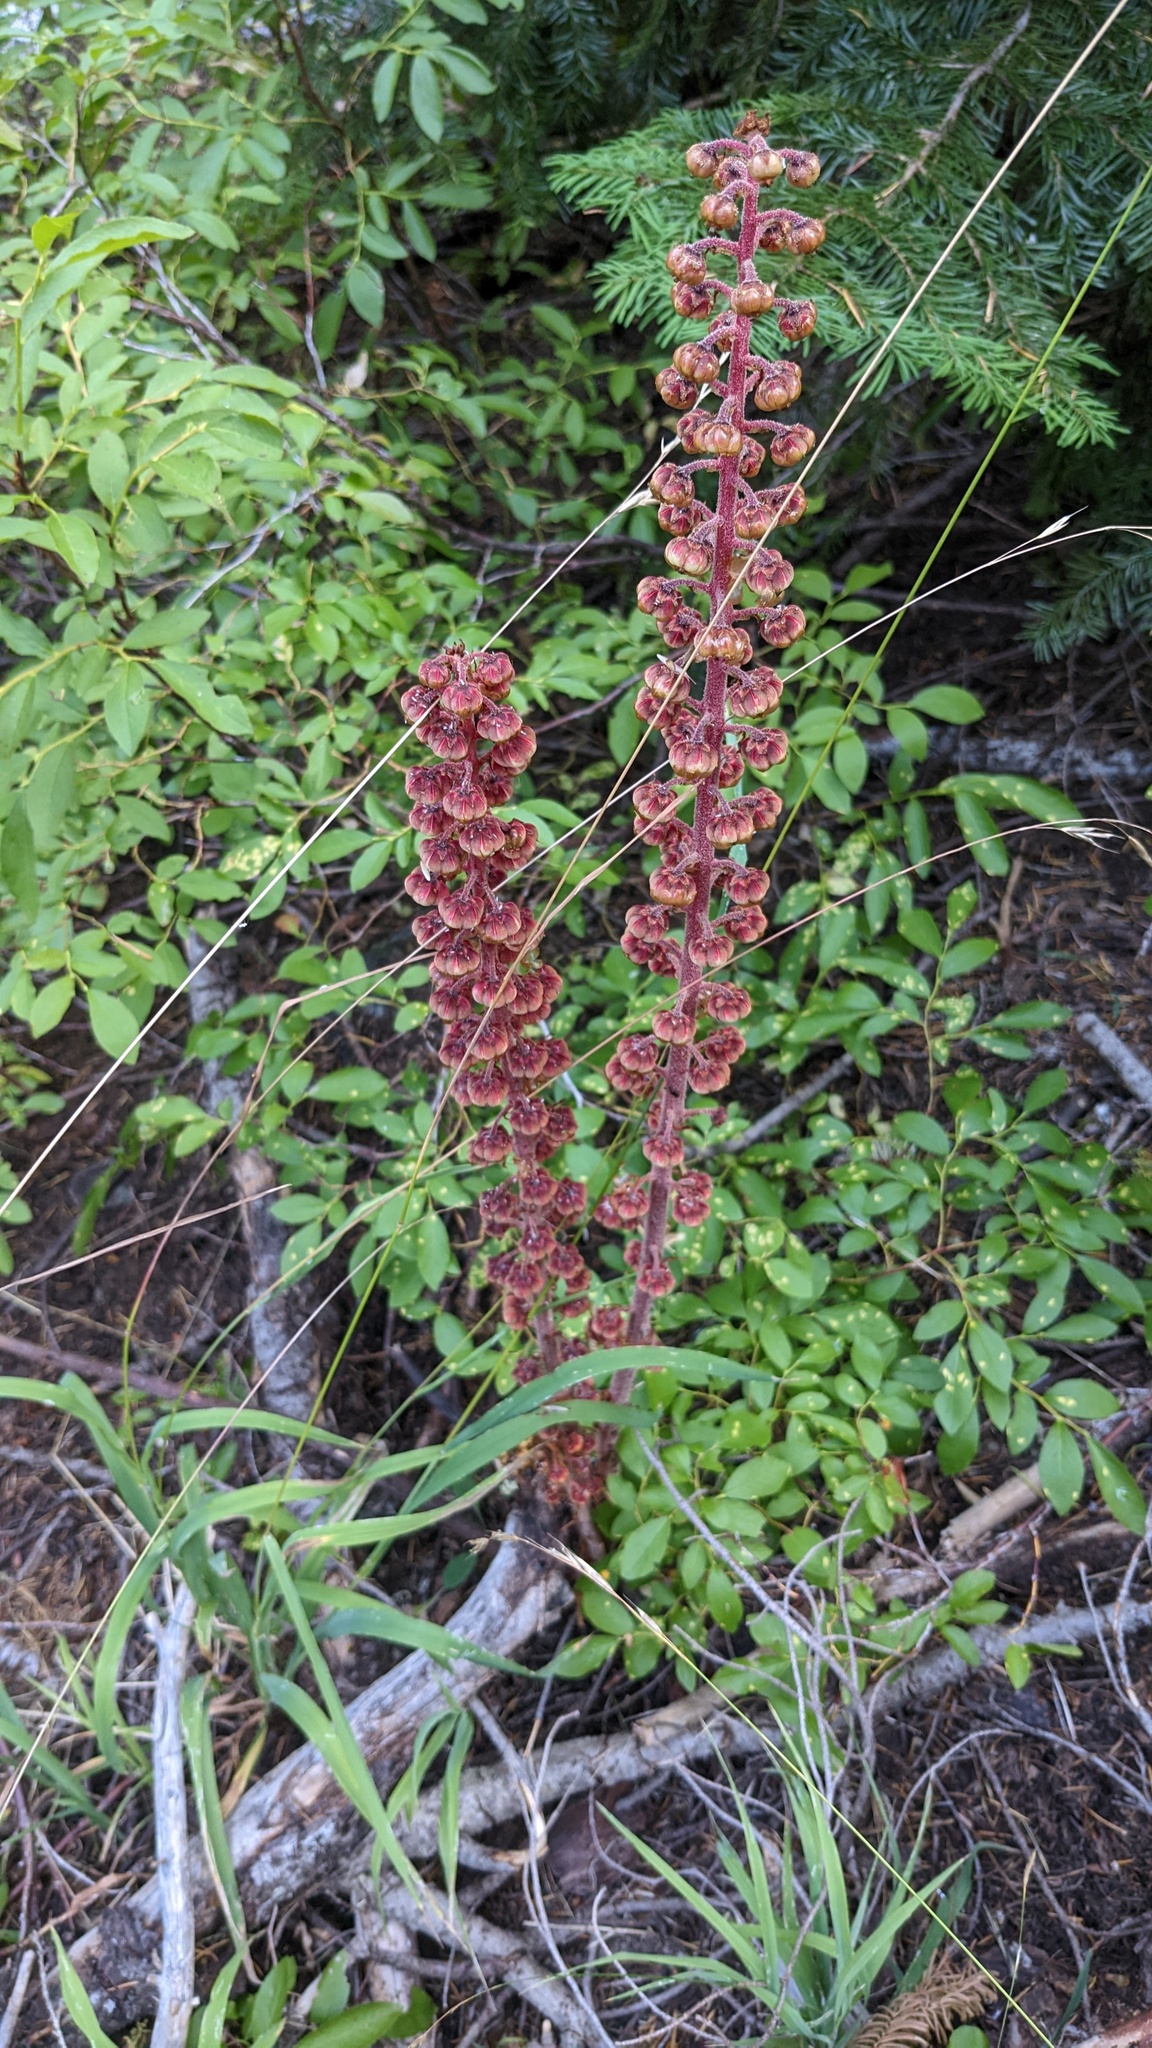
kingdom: Plantae
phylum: Tracheophyta
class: Magnoliopsida
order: Ericales
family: Ericaceae
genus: Pterospora
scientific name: Pterospora andromedea
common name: Giant bird's-nest
